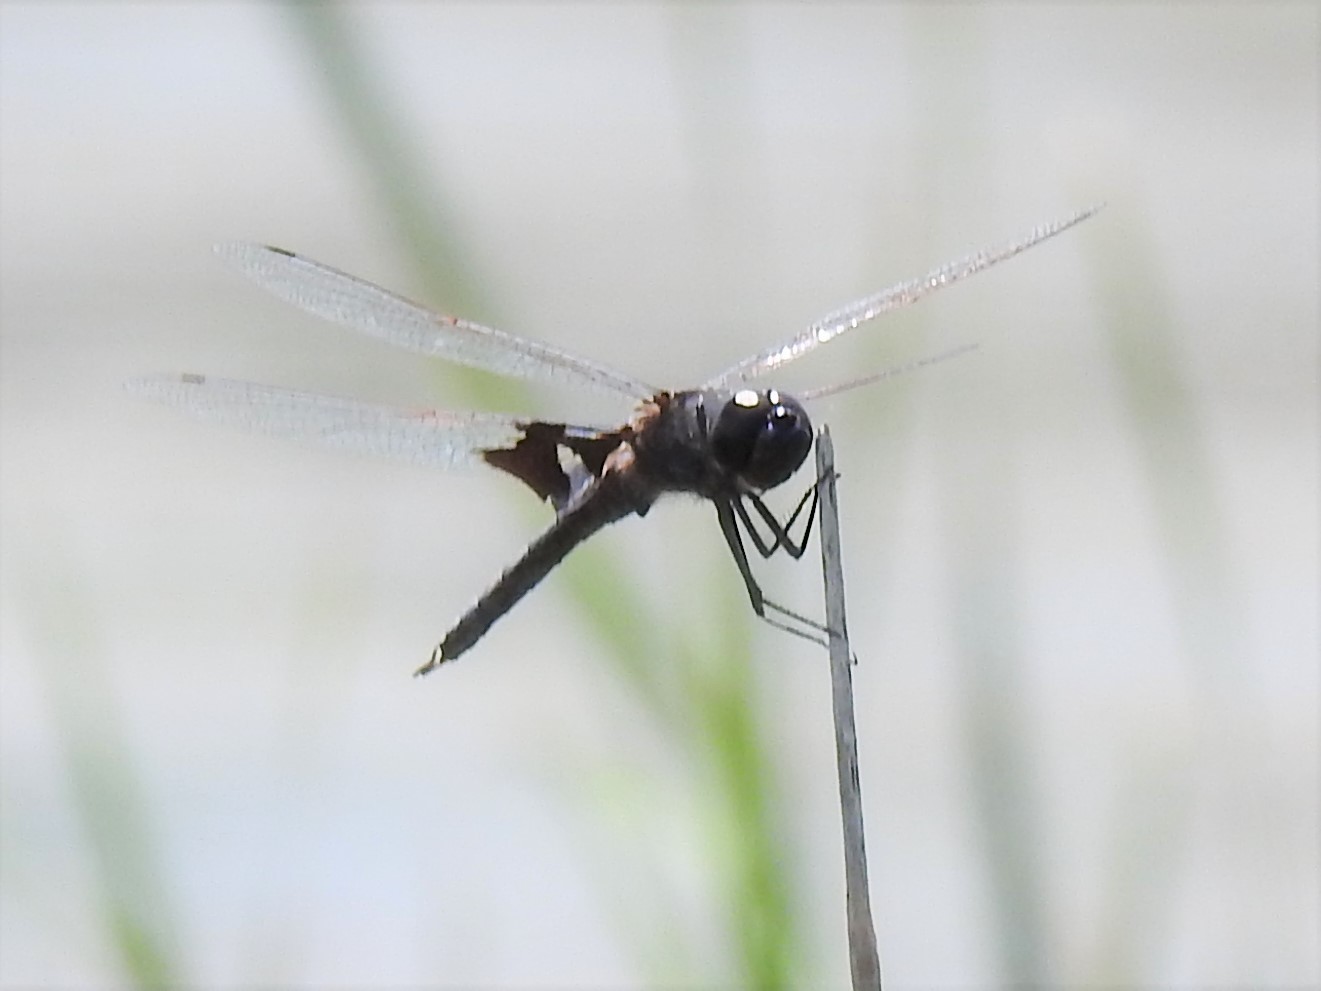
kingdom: Animalia
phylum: Arthropoda
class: Insecta
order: Odonata
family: Libellulidae
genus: Tramea
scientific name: Tramea lacerata
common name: Black saddlebags
